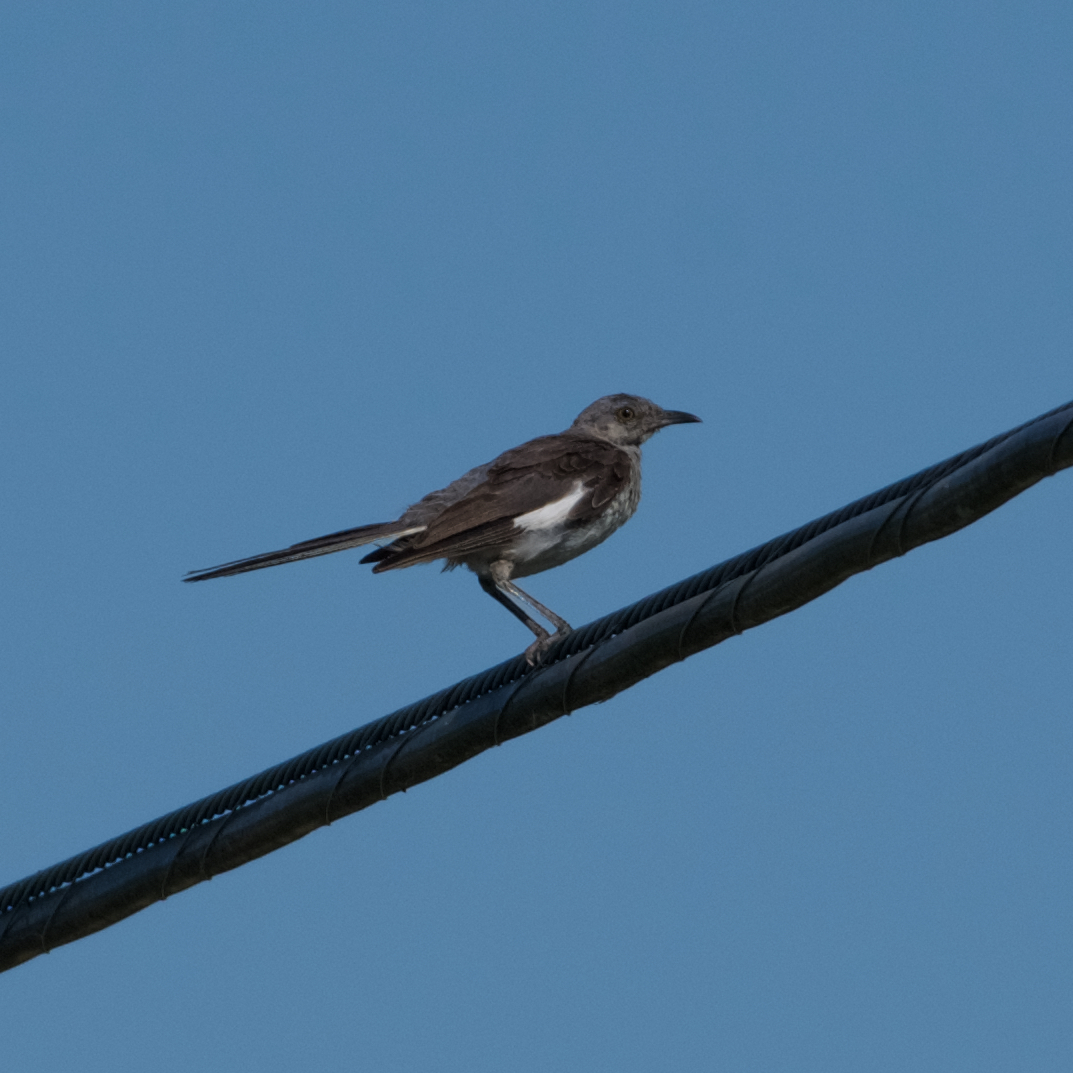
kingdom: Animalia
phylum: Chordata
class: Aves
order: Passeriformes
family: Mimidae
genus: Mimus
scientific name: Mimus polyglottos
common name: Northern mockingbird
